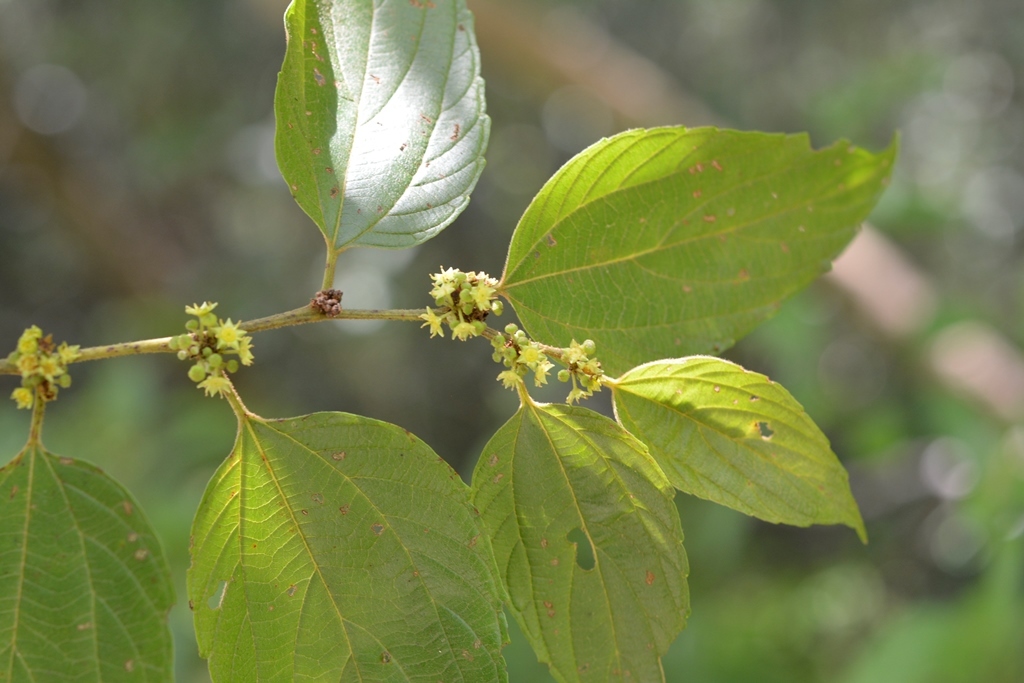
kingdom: Plantae
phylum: Tracheophyta
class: Magnoliopsida
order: Rosales
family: Rhamnaceae
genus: Colubrina
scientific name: Colubrina arborescens
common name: Wild coffee
